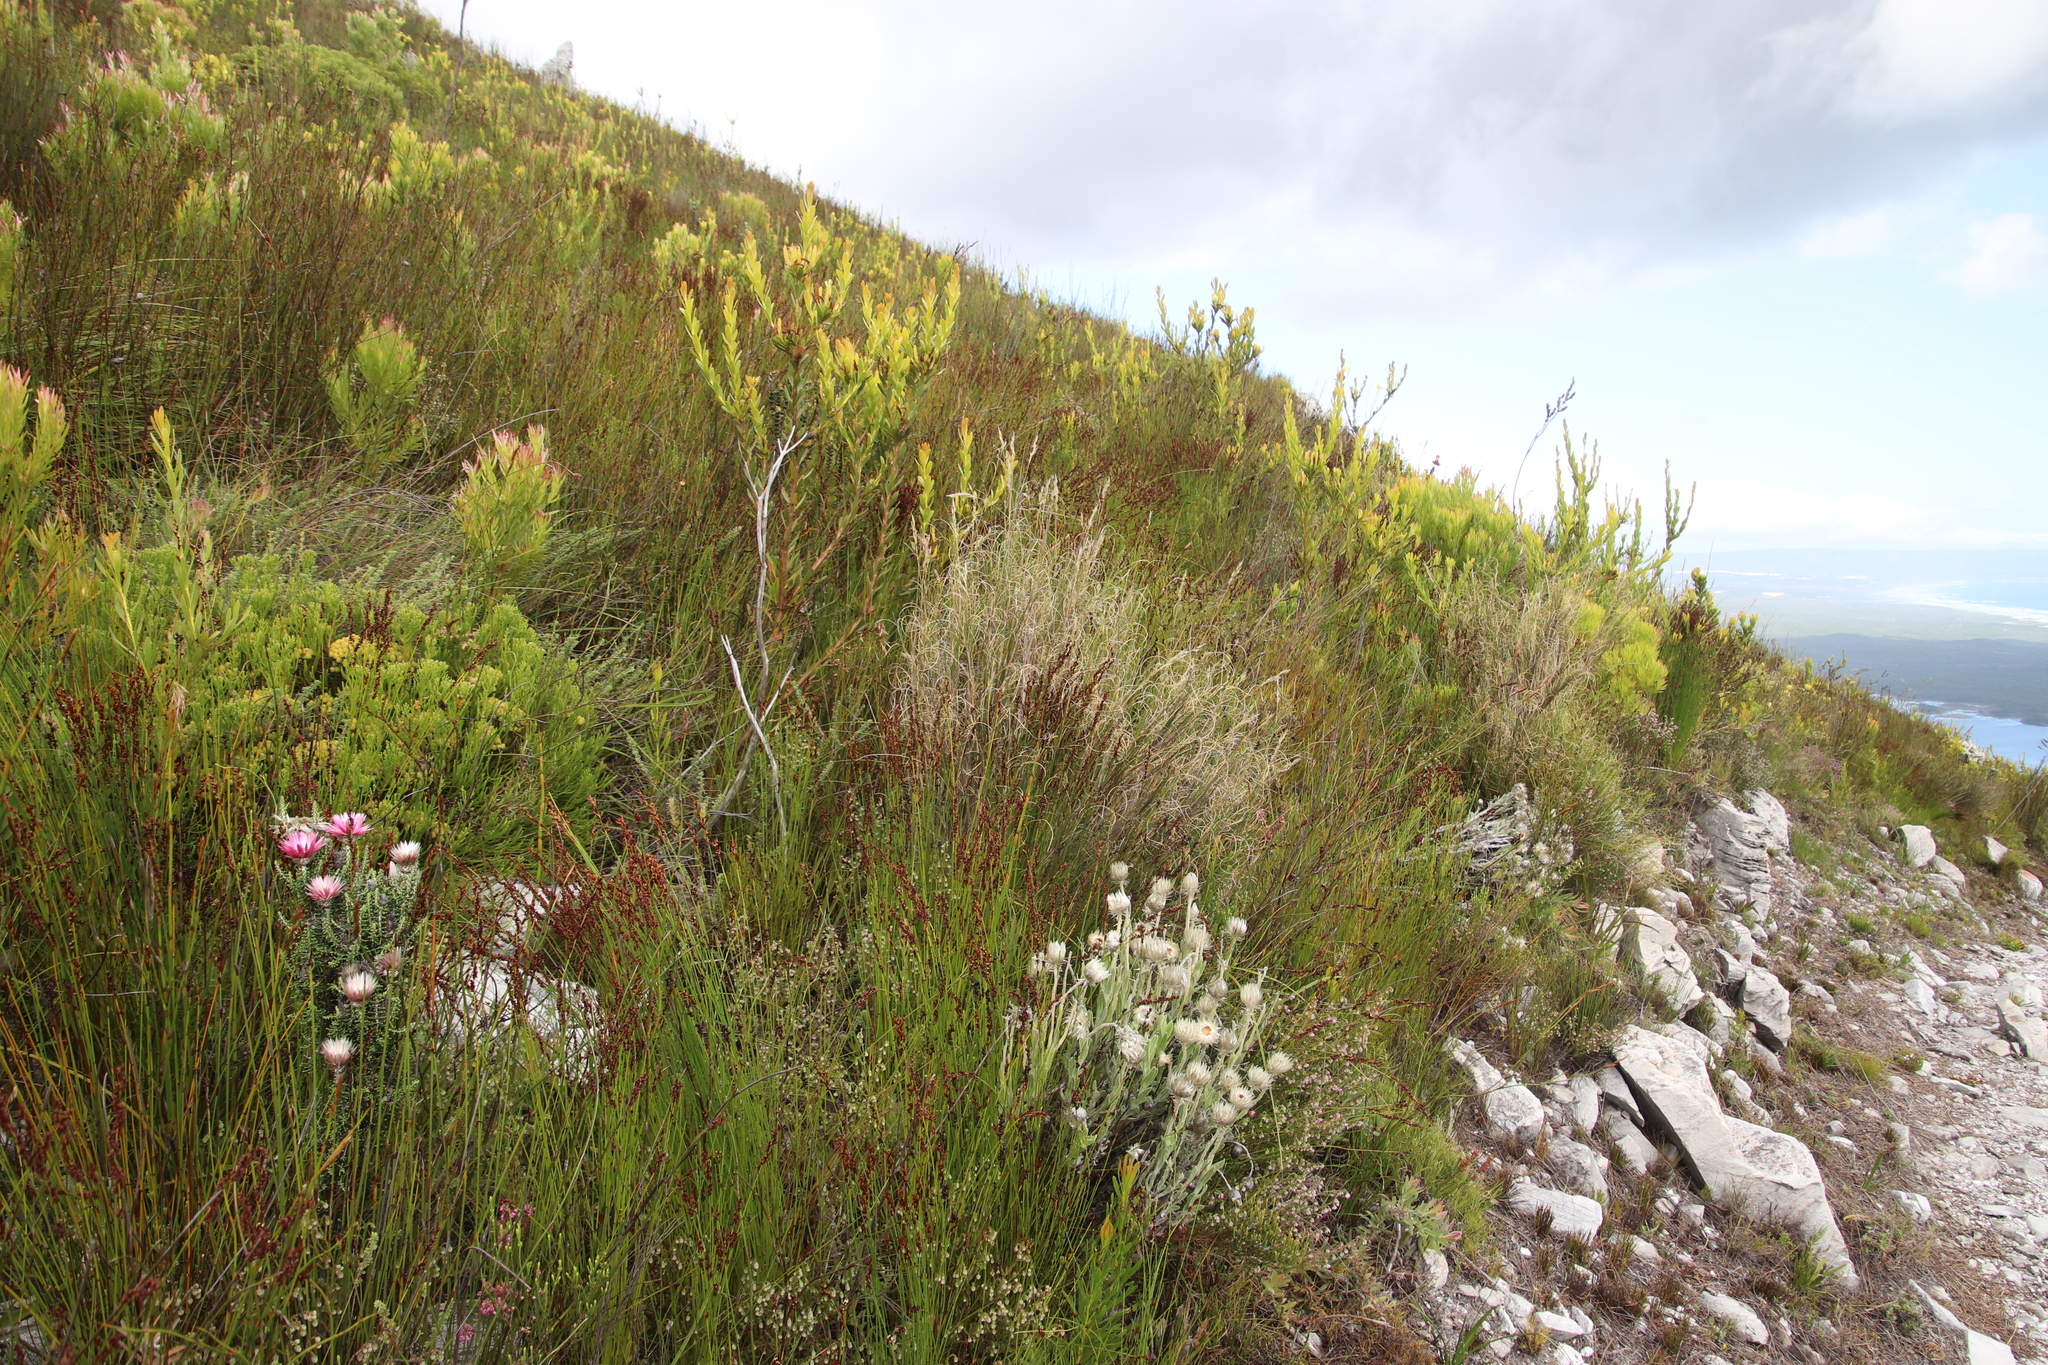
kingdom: Plantae
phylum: Tracheophyta
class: Liliopsida
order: Poales
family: Poaceae
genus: Pentameris
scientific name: Pentameris macrocalycina
